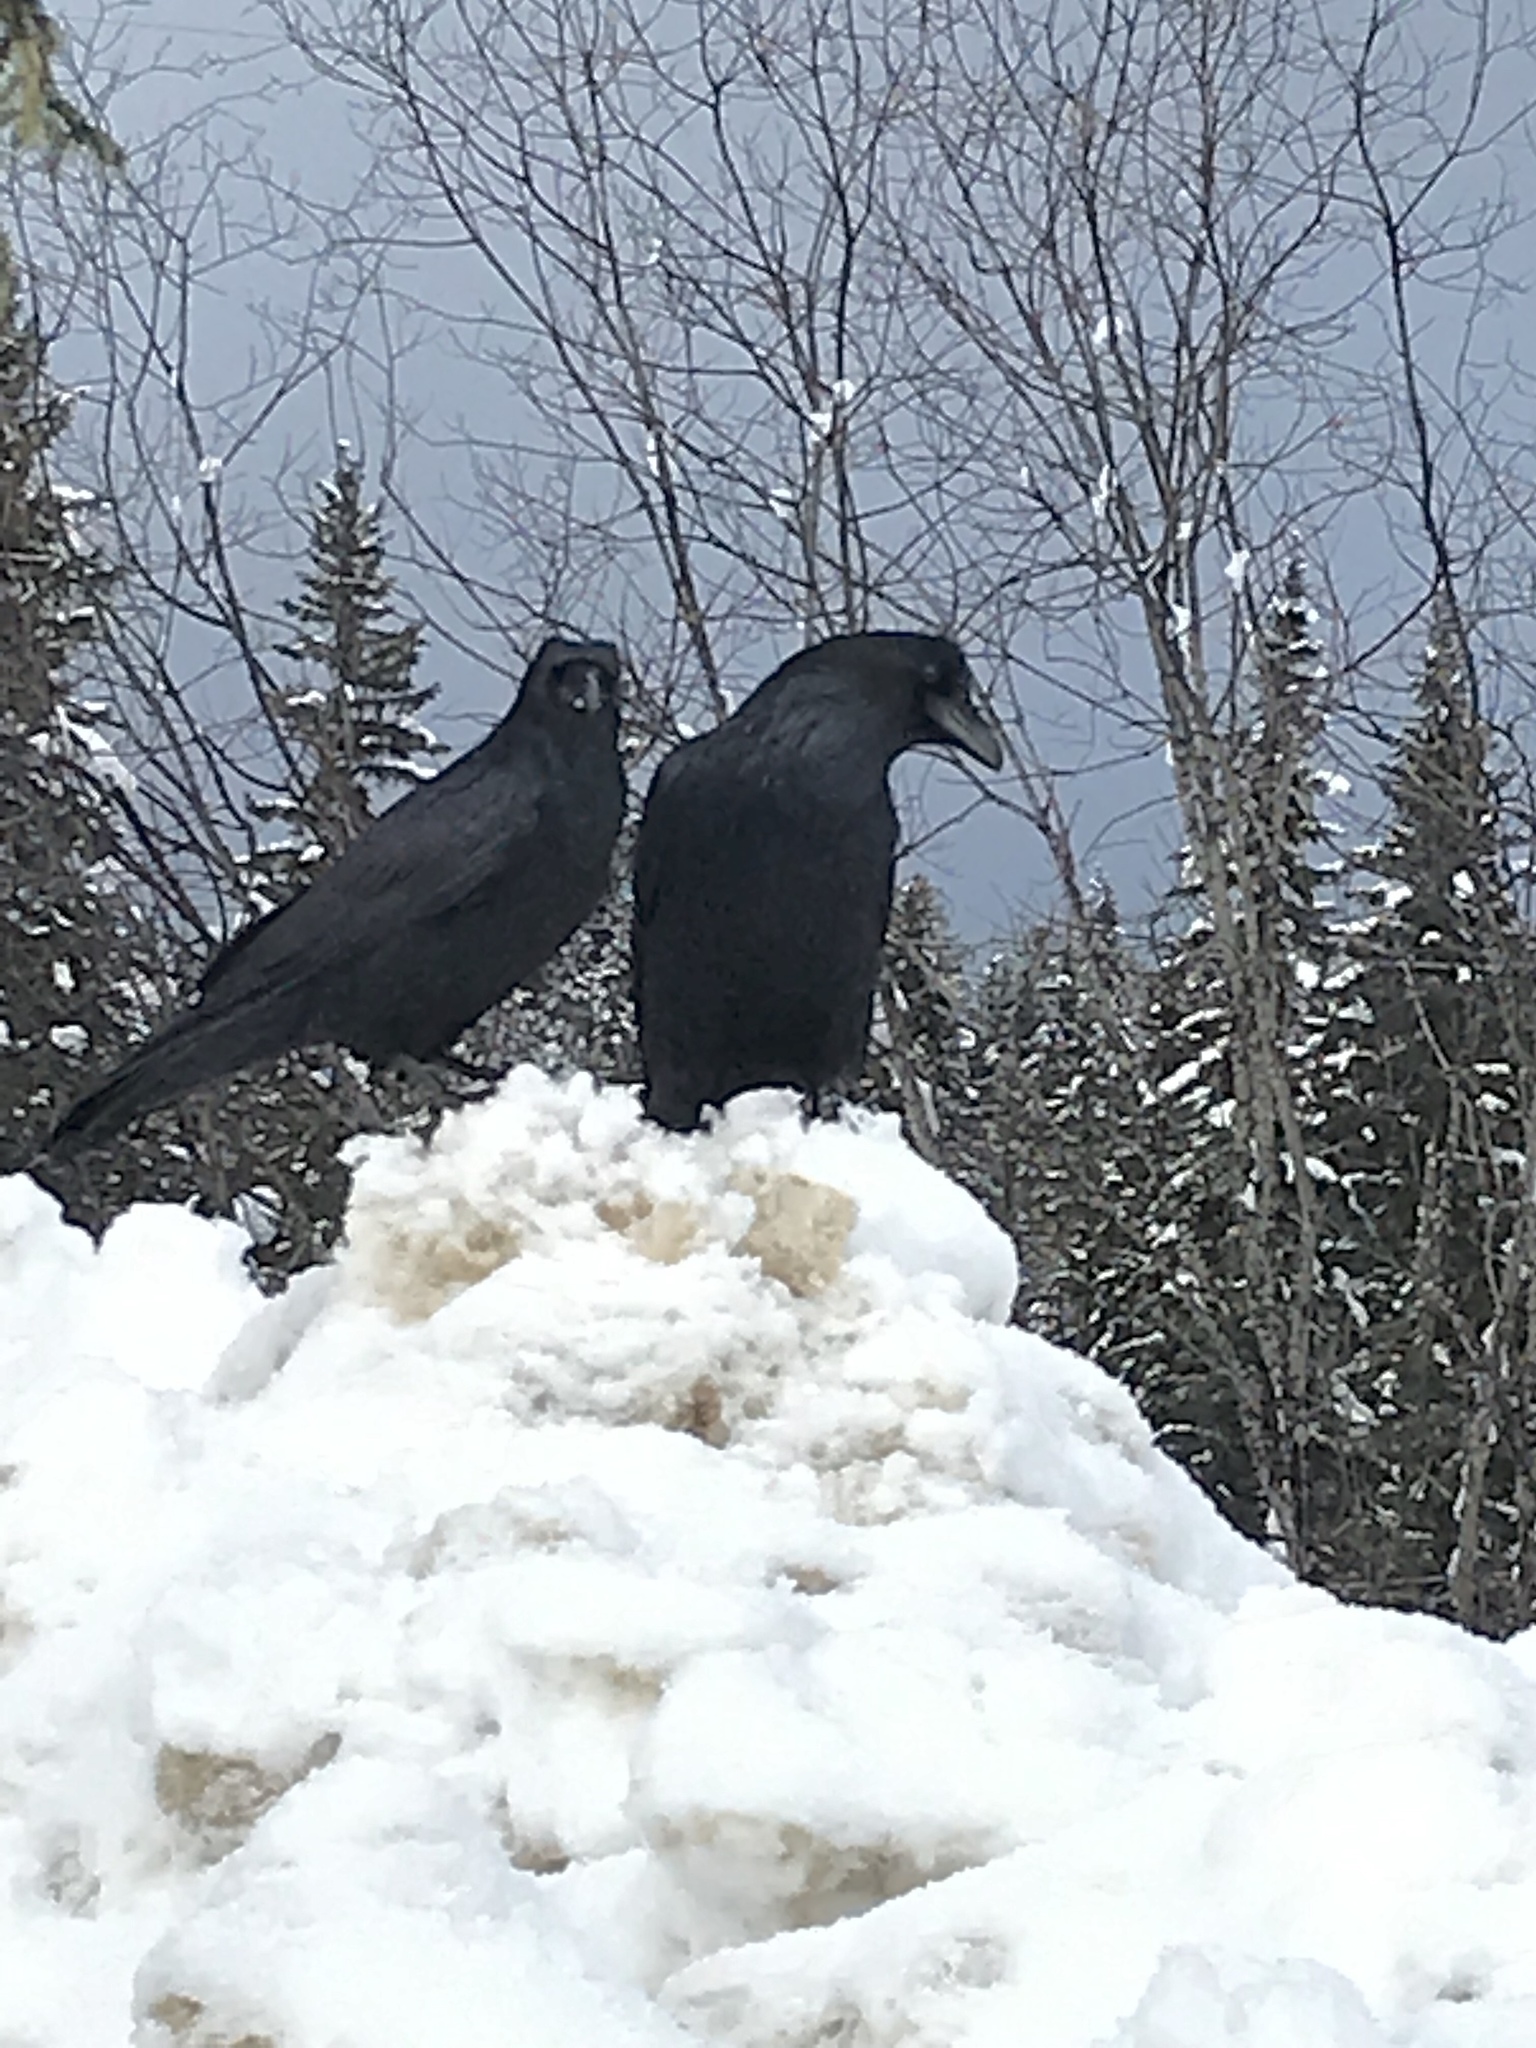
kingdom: Animalia
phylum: Chordata
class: Aves
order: Passeriformes
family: Corvidae
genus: Corvus
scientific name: Corvus corax
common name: Common raven
